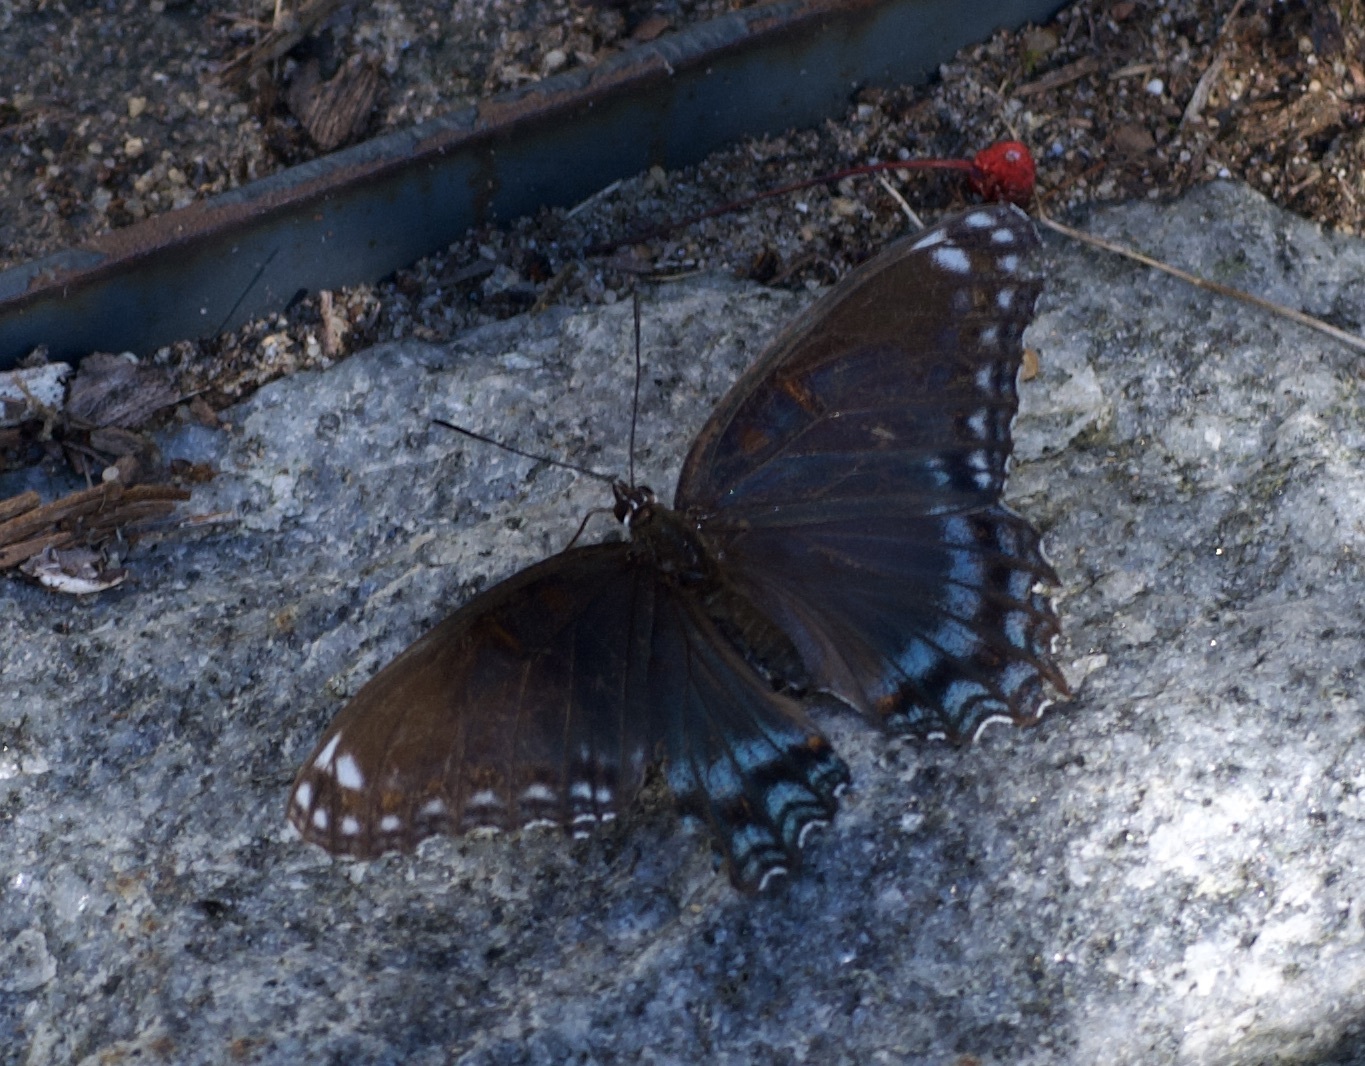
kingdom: Animalia
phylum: Arthropoda
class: Insecta
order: Lepidoptera
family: Nymphalidae
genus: Limenitis
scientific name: Limenitis arthemis
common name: Red-spotted admiral
